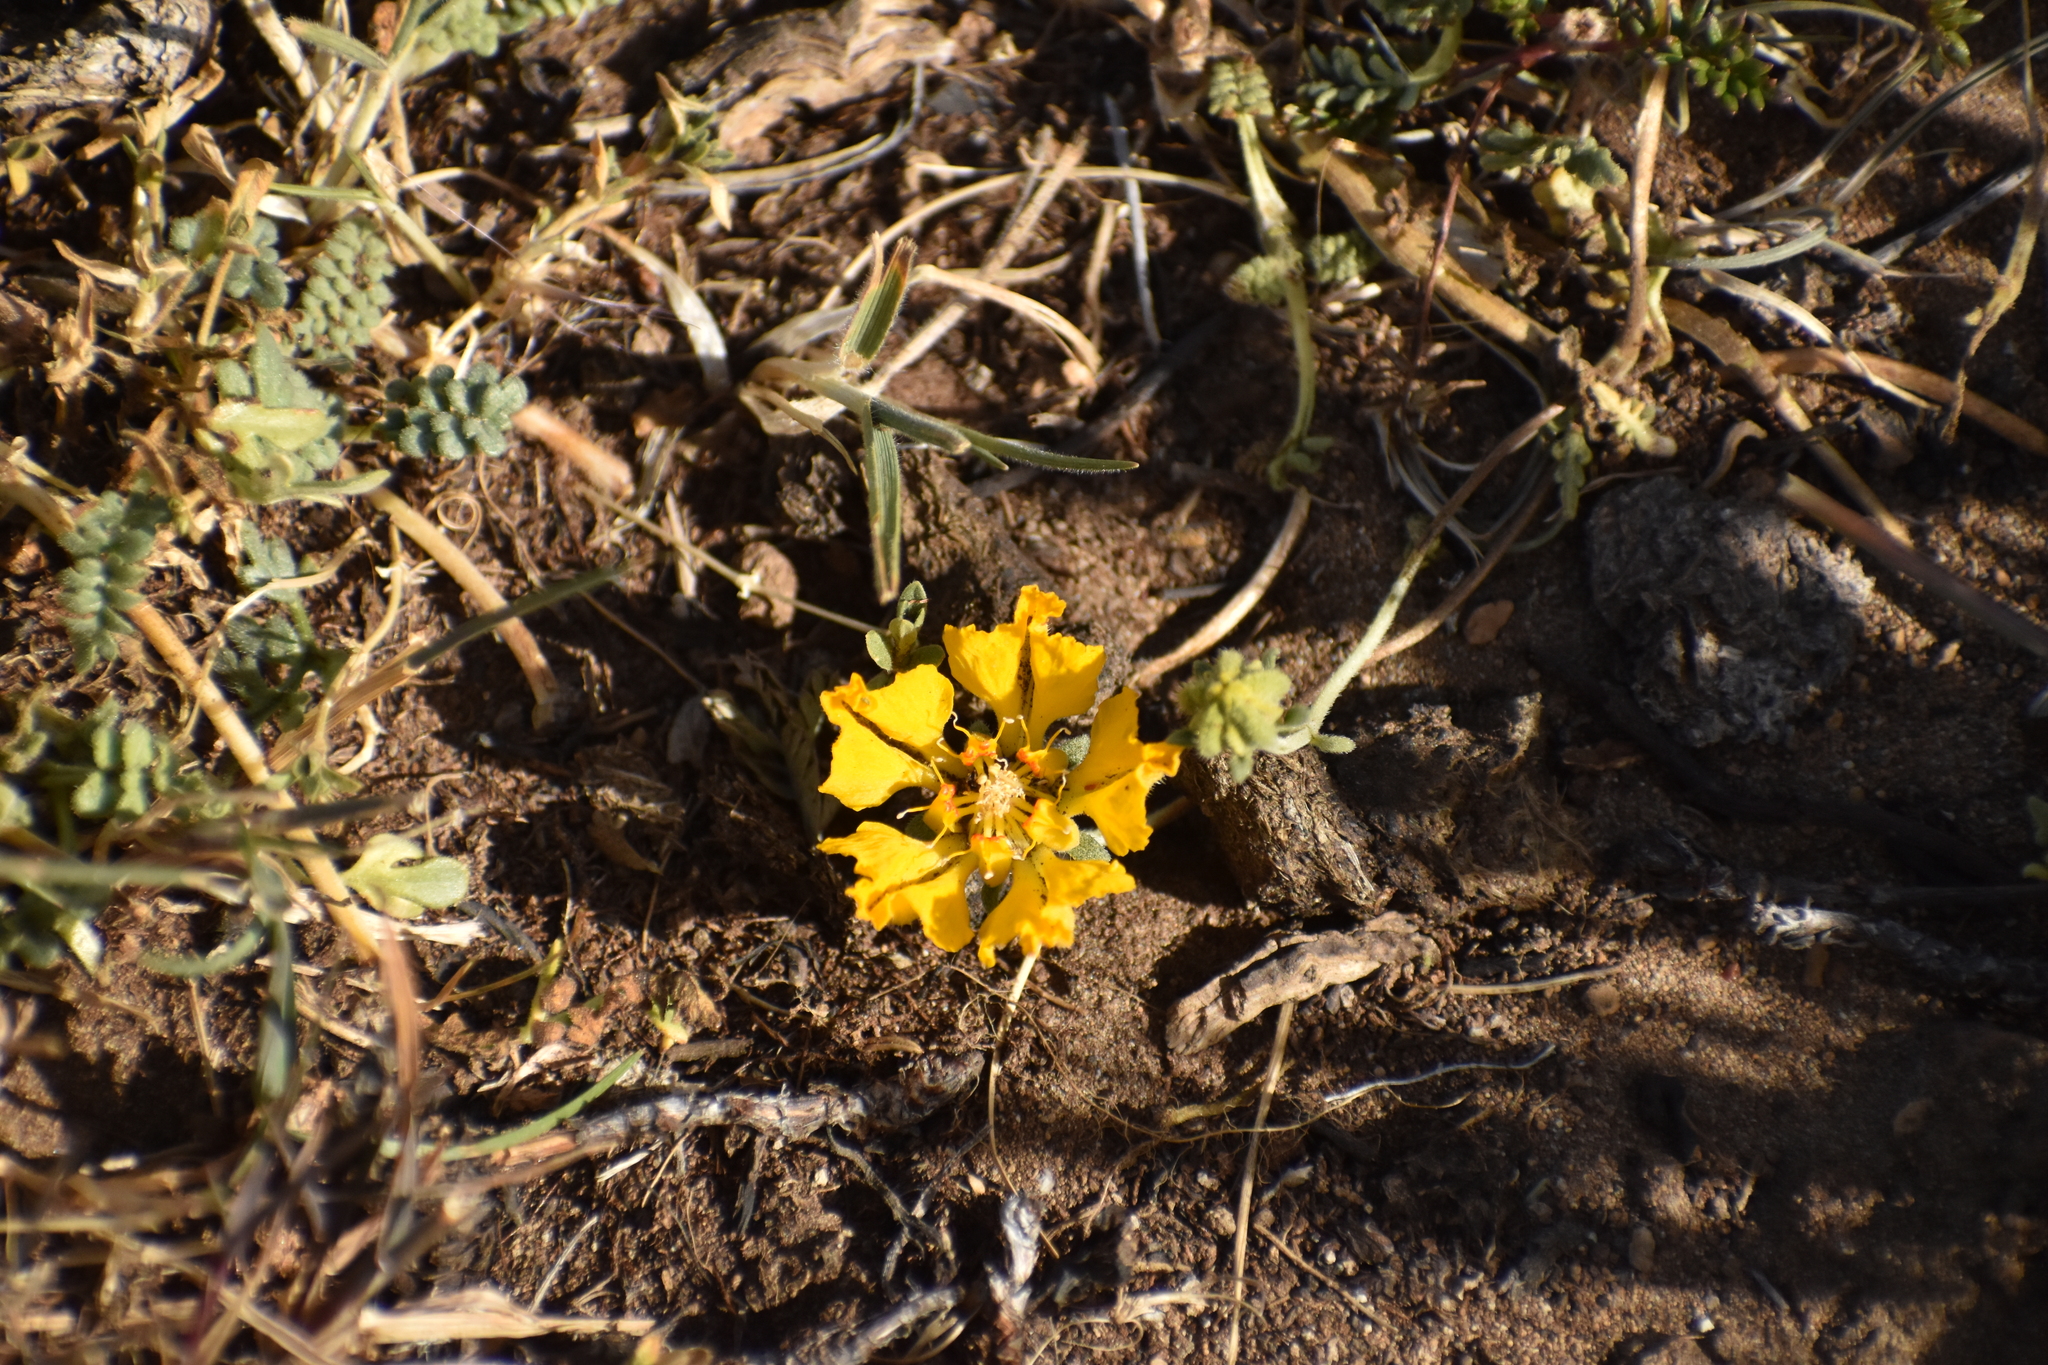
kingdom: Plantae
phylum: Tracheophyta
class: Magnoliopsida
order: Cornales
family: Loasaceae
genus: Pinnasa
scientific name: Pinnasa bergii
